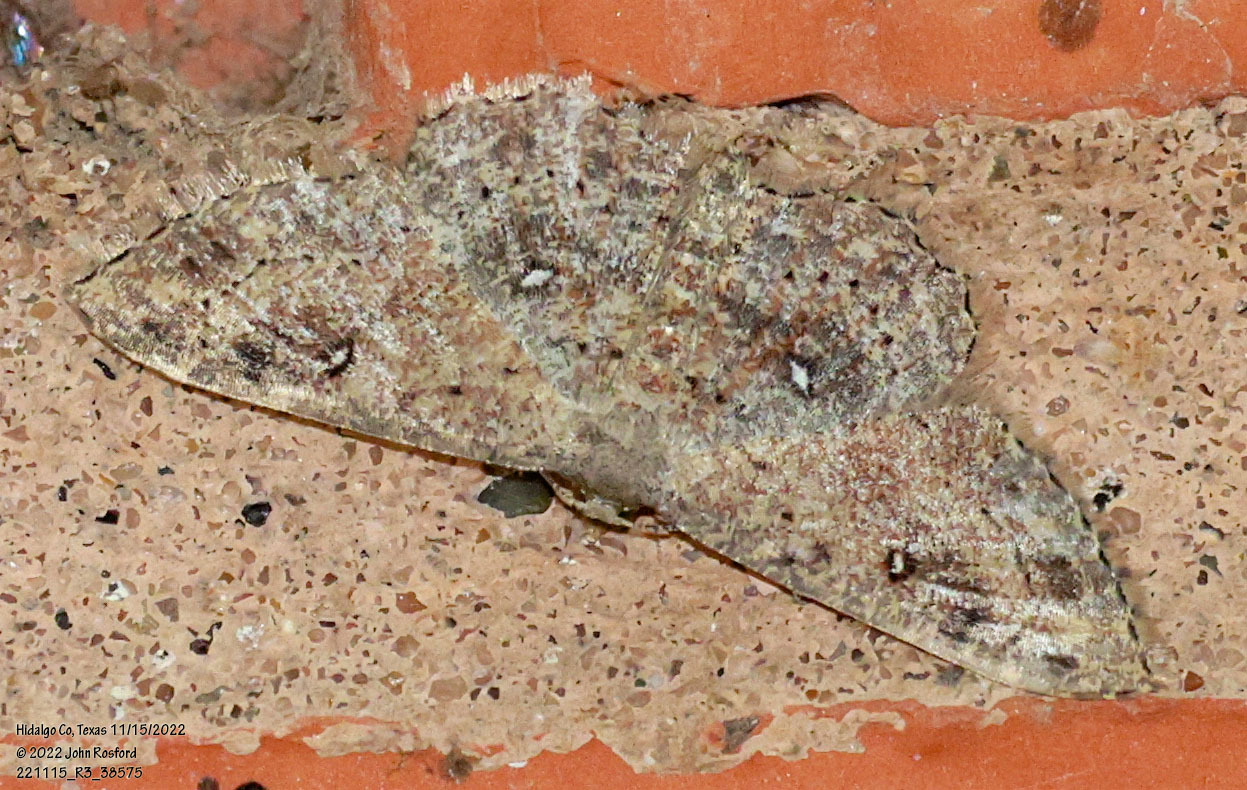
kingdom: Animalia
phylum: Arthropoda
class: Insecta
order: Lepidoptera
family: Geometridae
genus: Cyclophora
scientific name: Cyclophora nanaria
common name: Cankerworm
